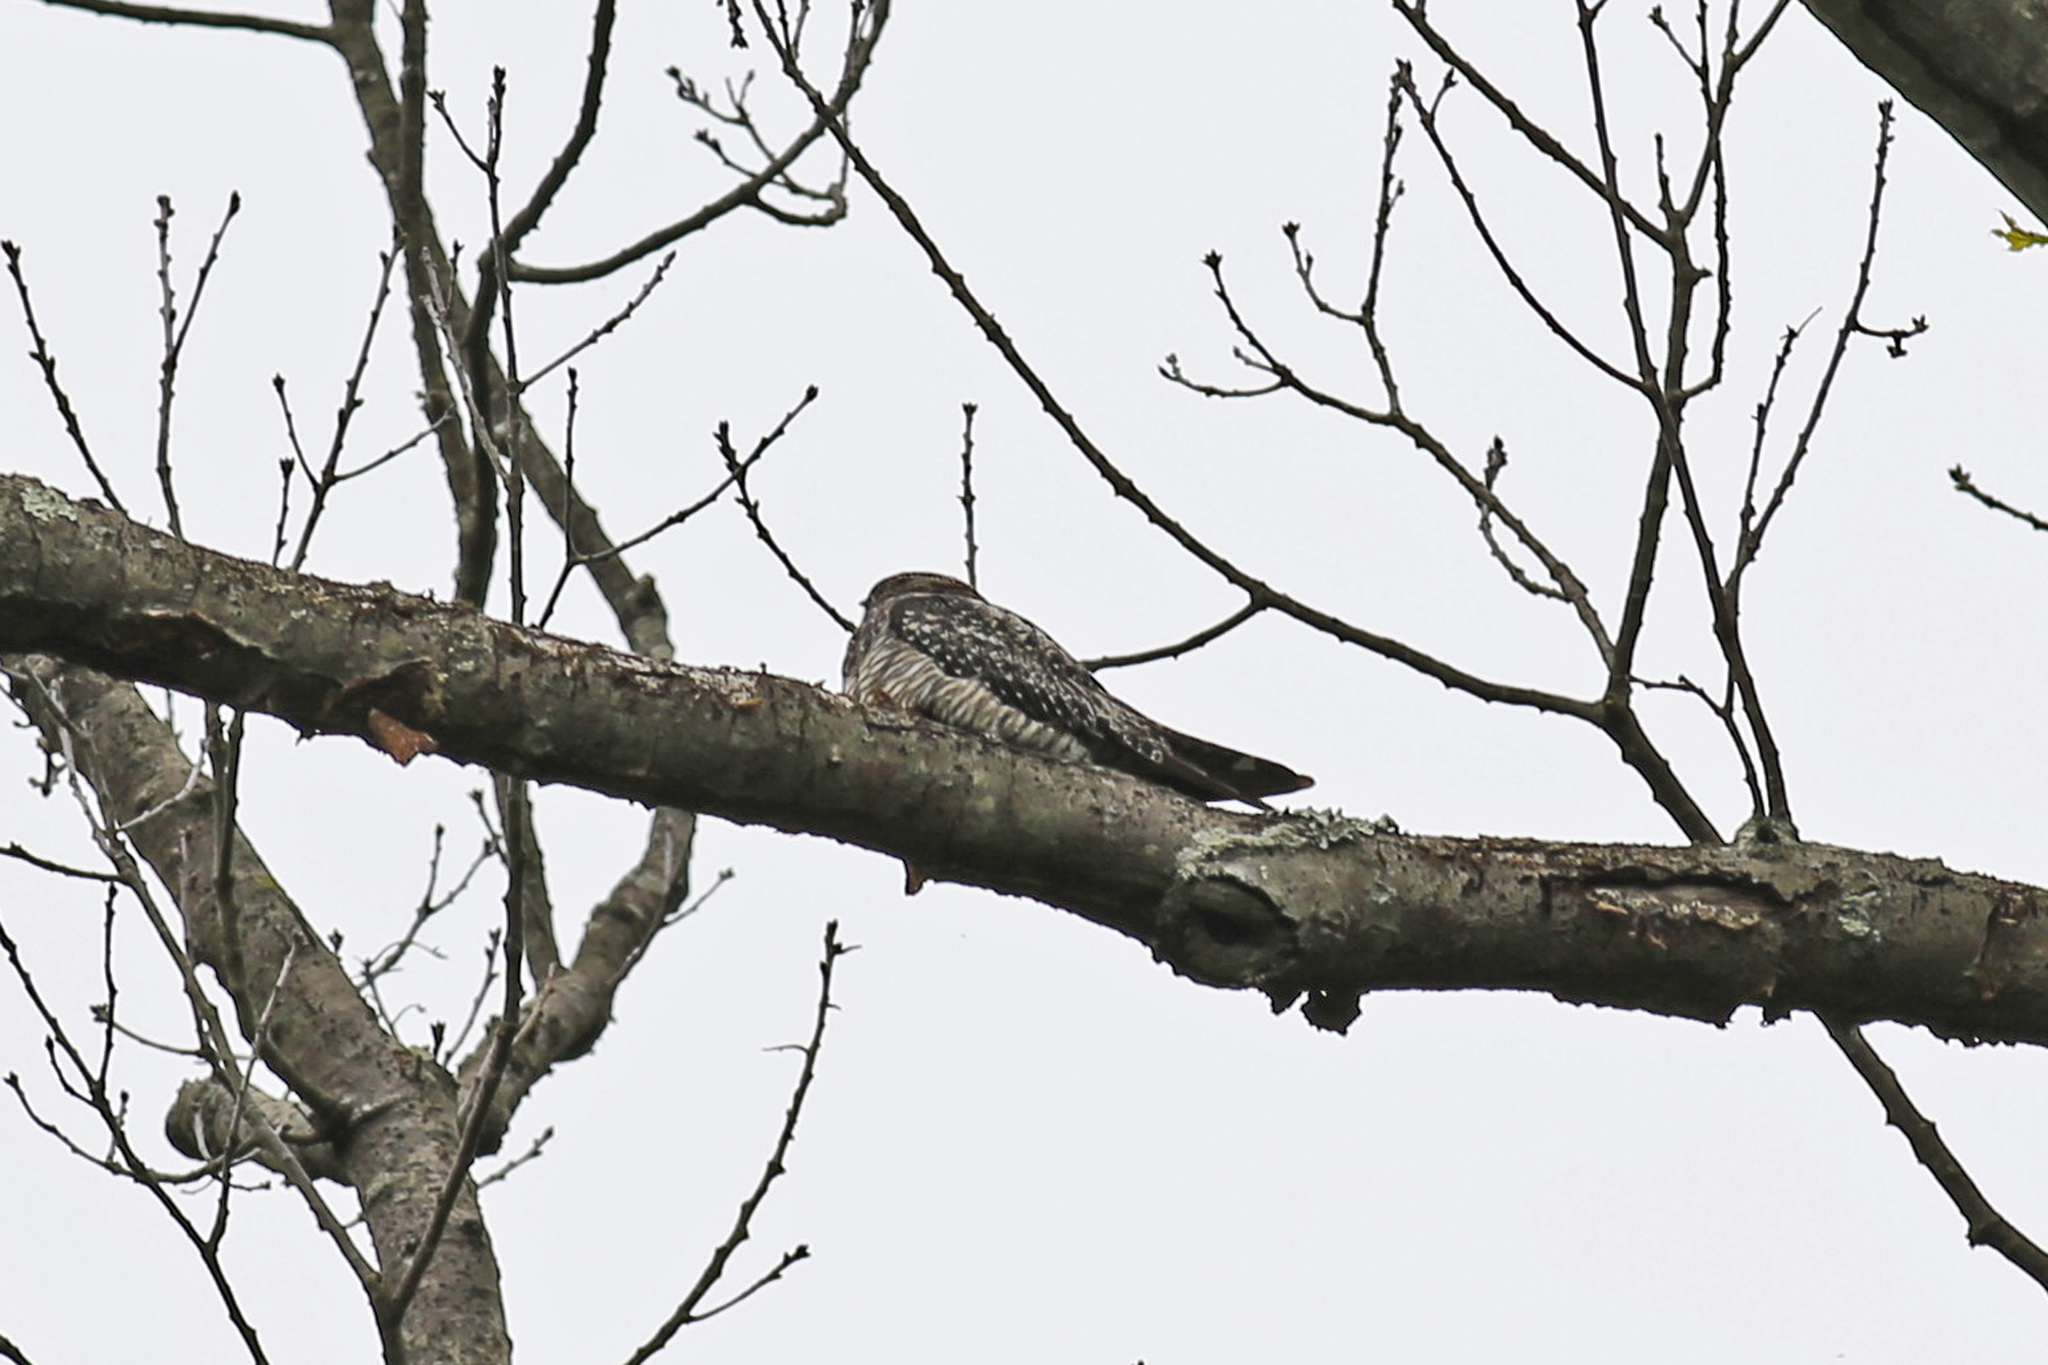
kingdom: Animalia
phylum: Chordata
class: Aves
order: Caprimulgiformes
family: Caprimulgidae
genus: Chordeiles
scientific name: Chordeiles minor
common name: Common nighthawk
